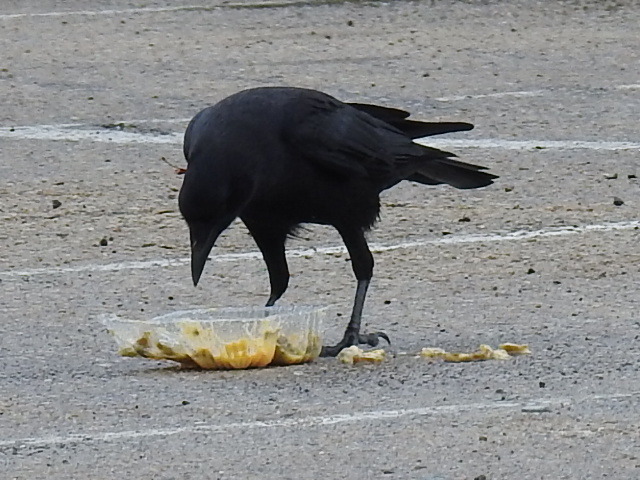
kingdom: Animalia
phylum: Chordata
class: Aves
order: Passeriformes
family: Corvidae
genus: Corvus
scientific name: Corvus brachyrhynchos
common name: American crow
